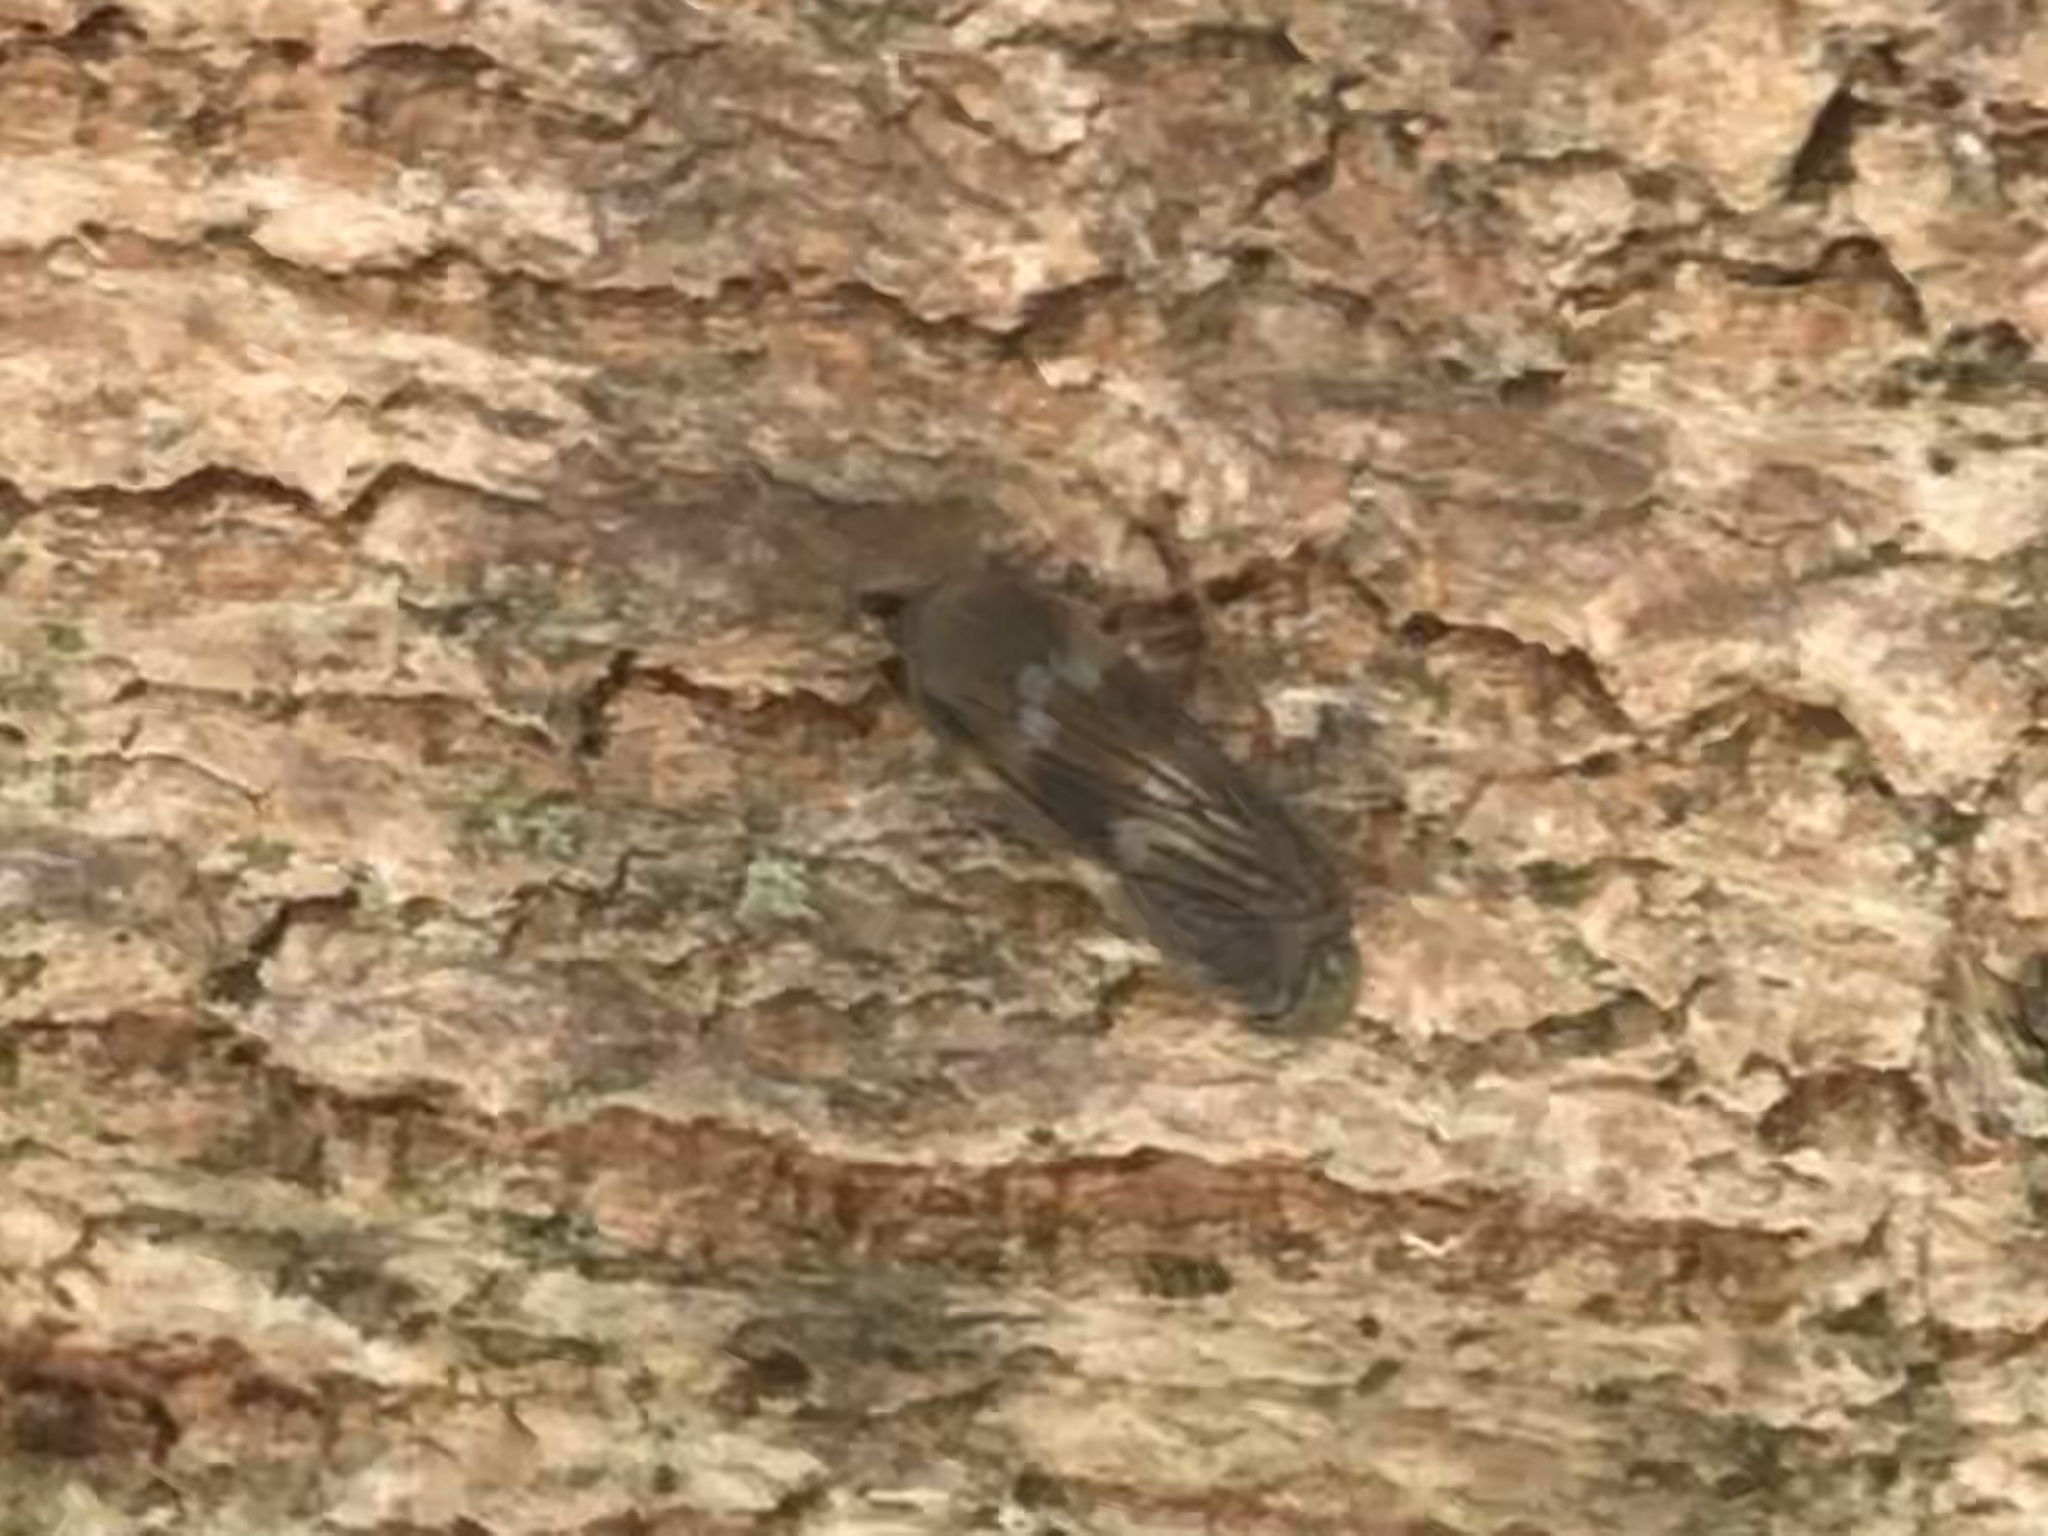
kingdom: Animalia
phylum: Arthropoda
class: Insecta
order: Hemiptera
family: Cicadellidae
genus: Jikradia
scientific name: Jikradia olitoria
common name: Coppery leafhopper
